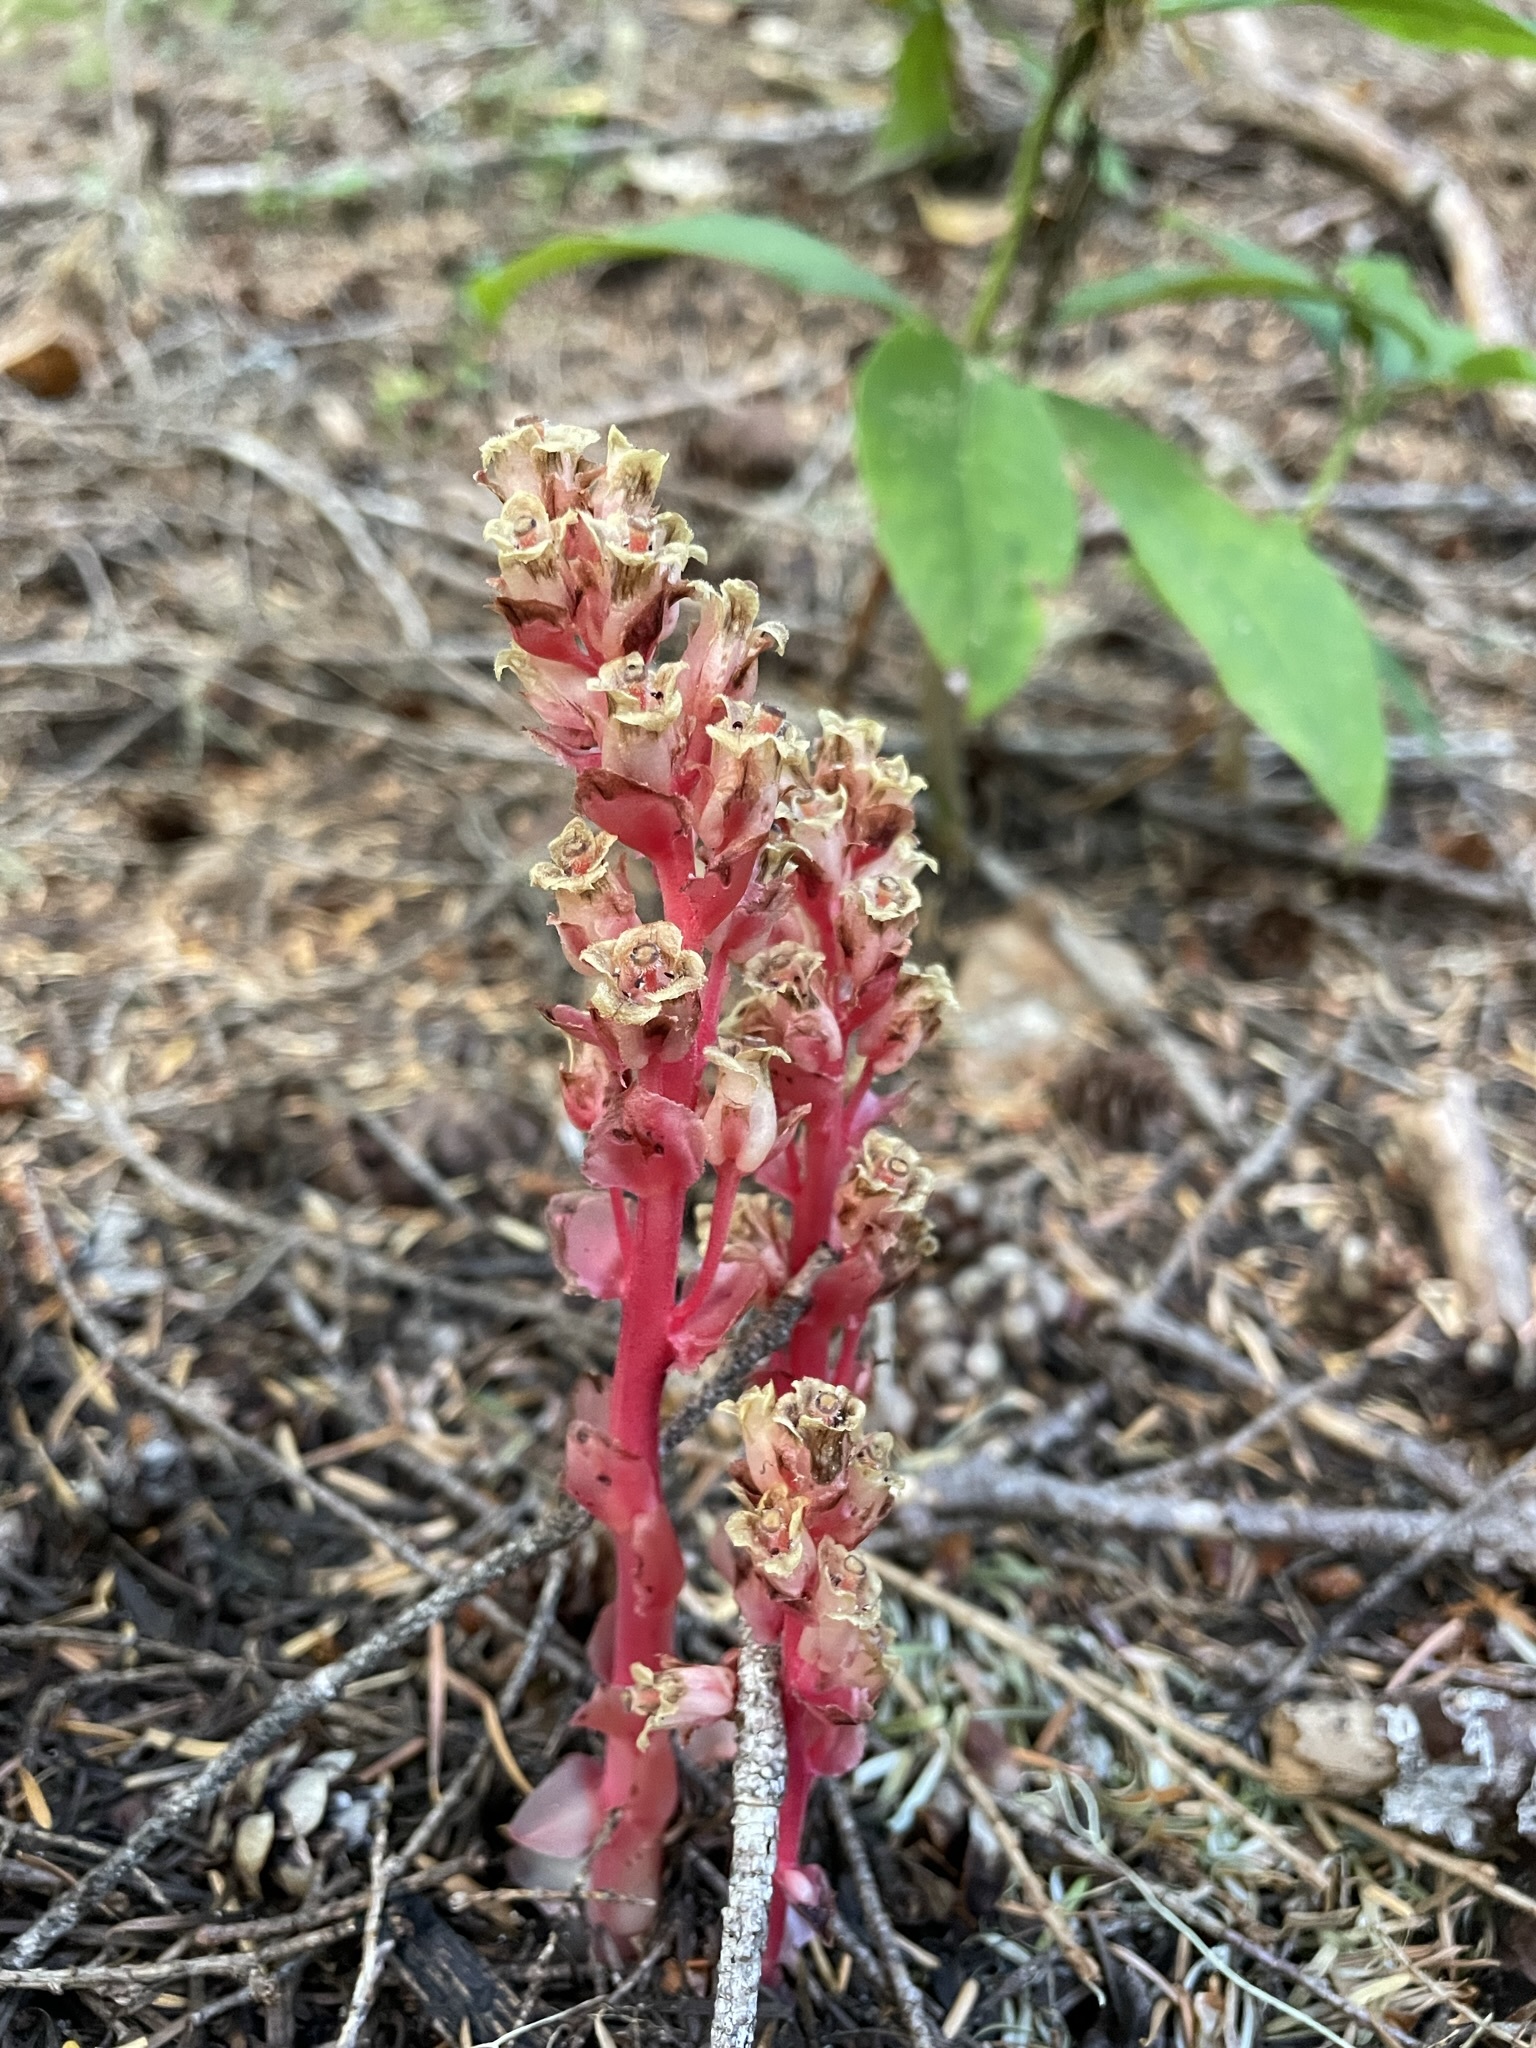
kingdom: Plantae
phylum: Tracheophyta
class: Magnoliopsida
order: Ericales
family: Ericaceae
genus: Hypopitys
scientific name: Hypopitys monotropa
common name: Yellow bird's-nest
